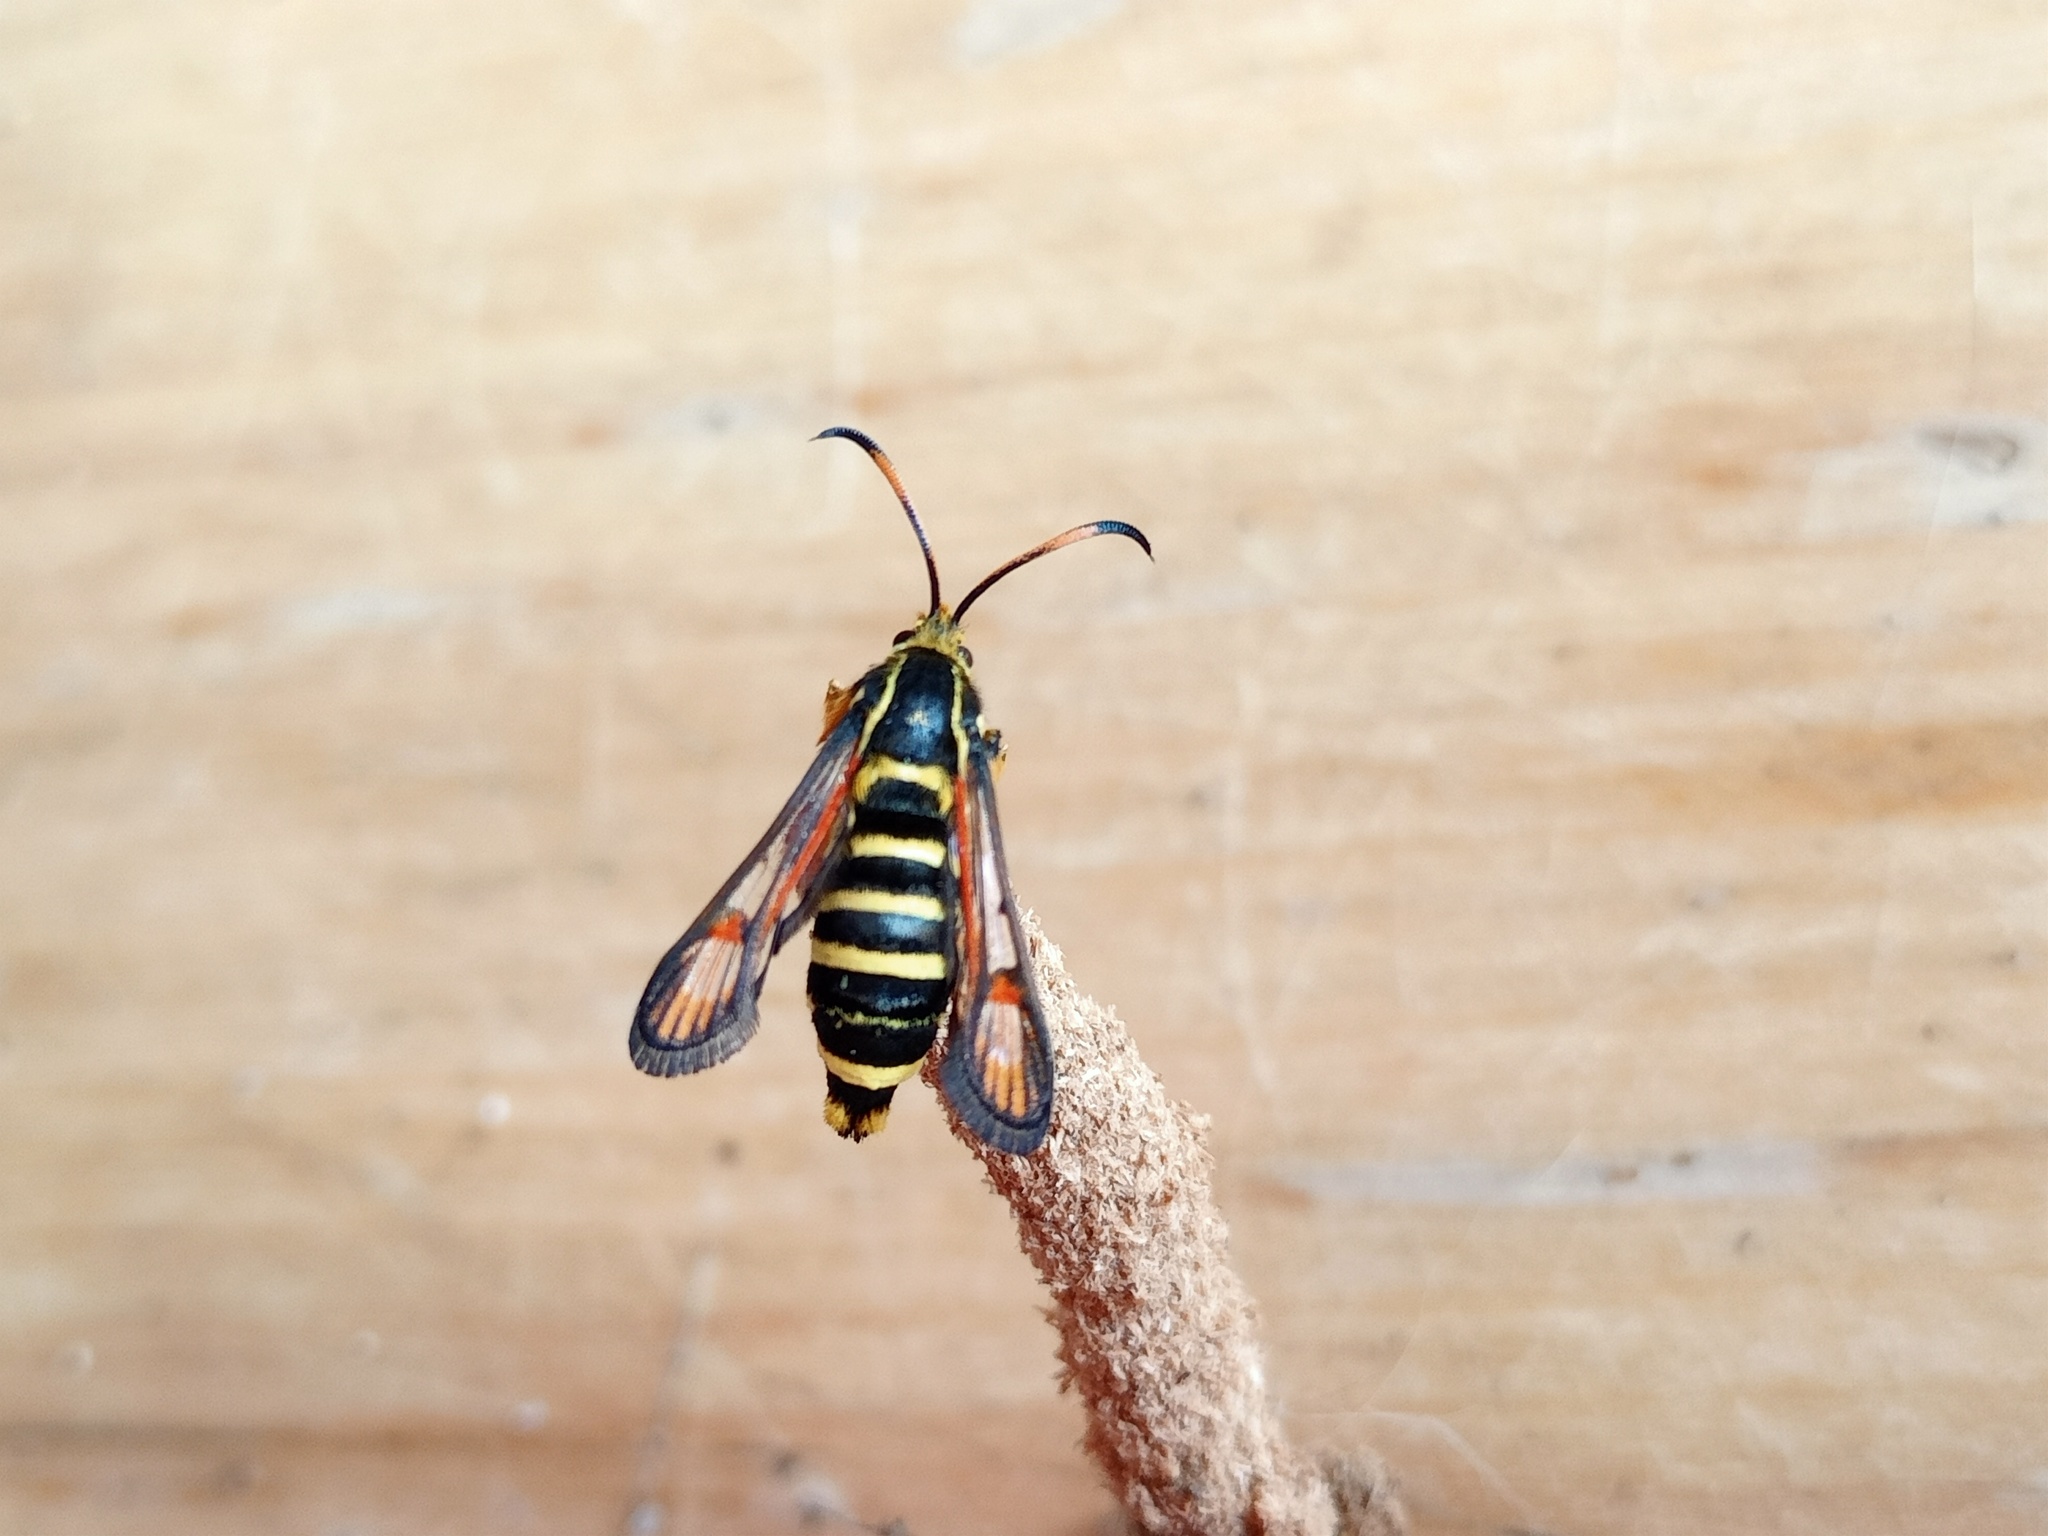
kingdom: Animalia
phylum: Arthropoda
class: Insecta
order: Lepidoptera
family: Sesiidae
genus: Bembecia
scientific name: Bembecia ichneumoniformis
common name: Six-belted clearwing
